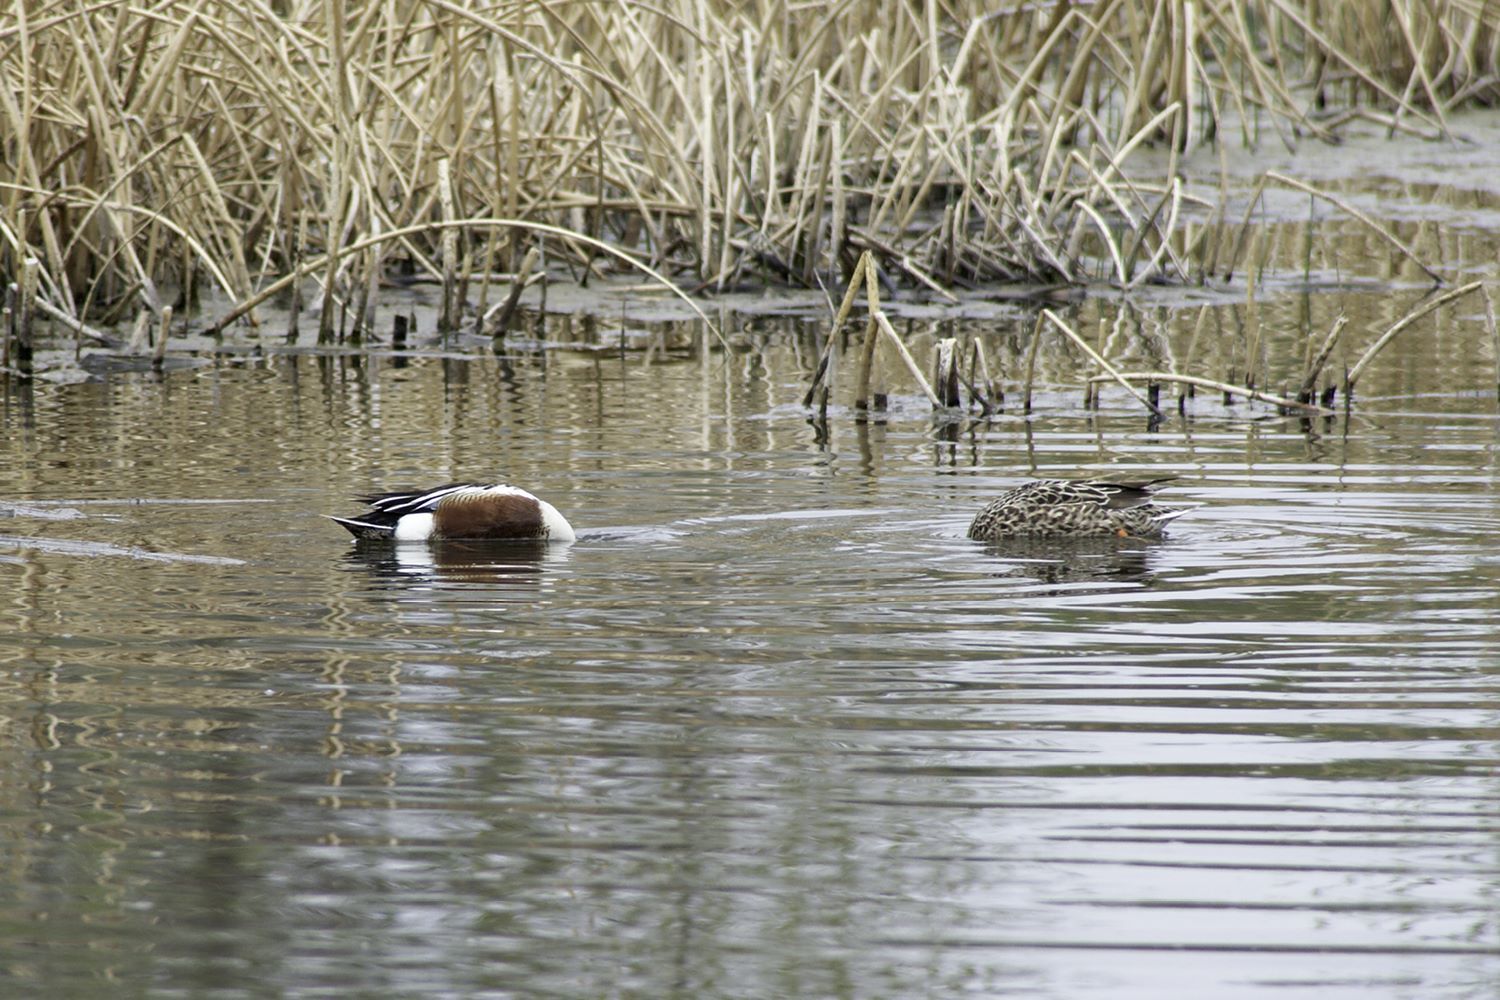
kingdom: Animalia
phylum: Chordata
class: Aves
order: Anseriformes
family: Anatidae
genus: Spatula
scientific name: Spatula clypeata
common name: Northern shoveler
